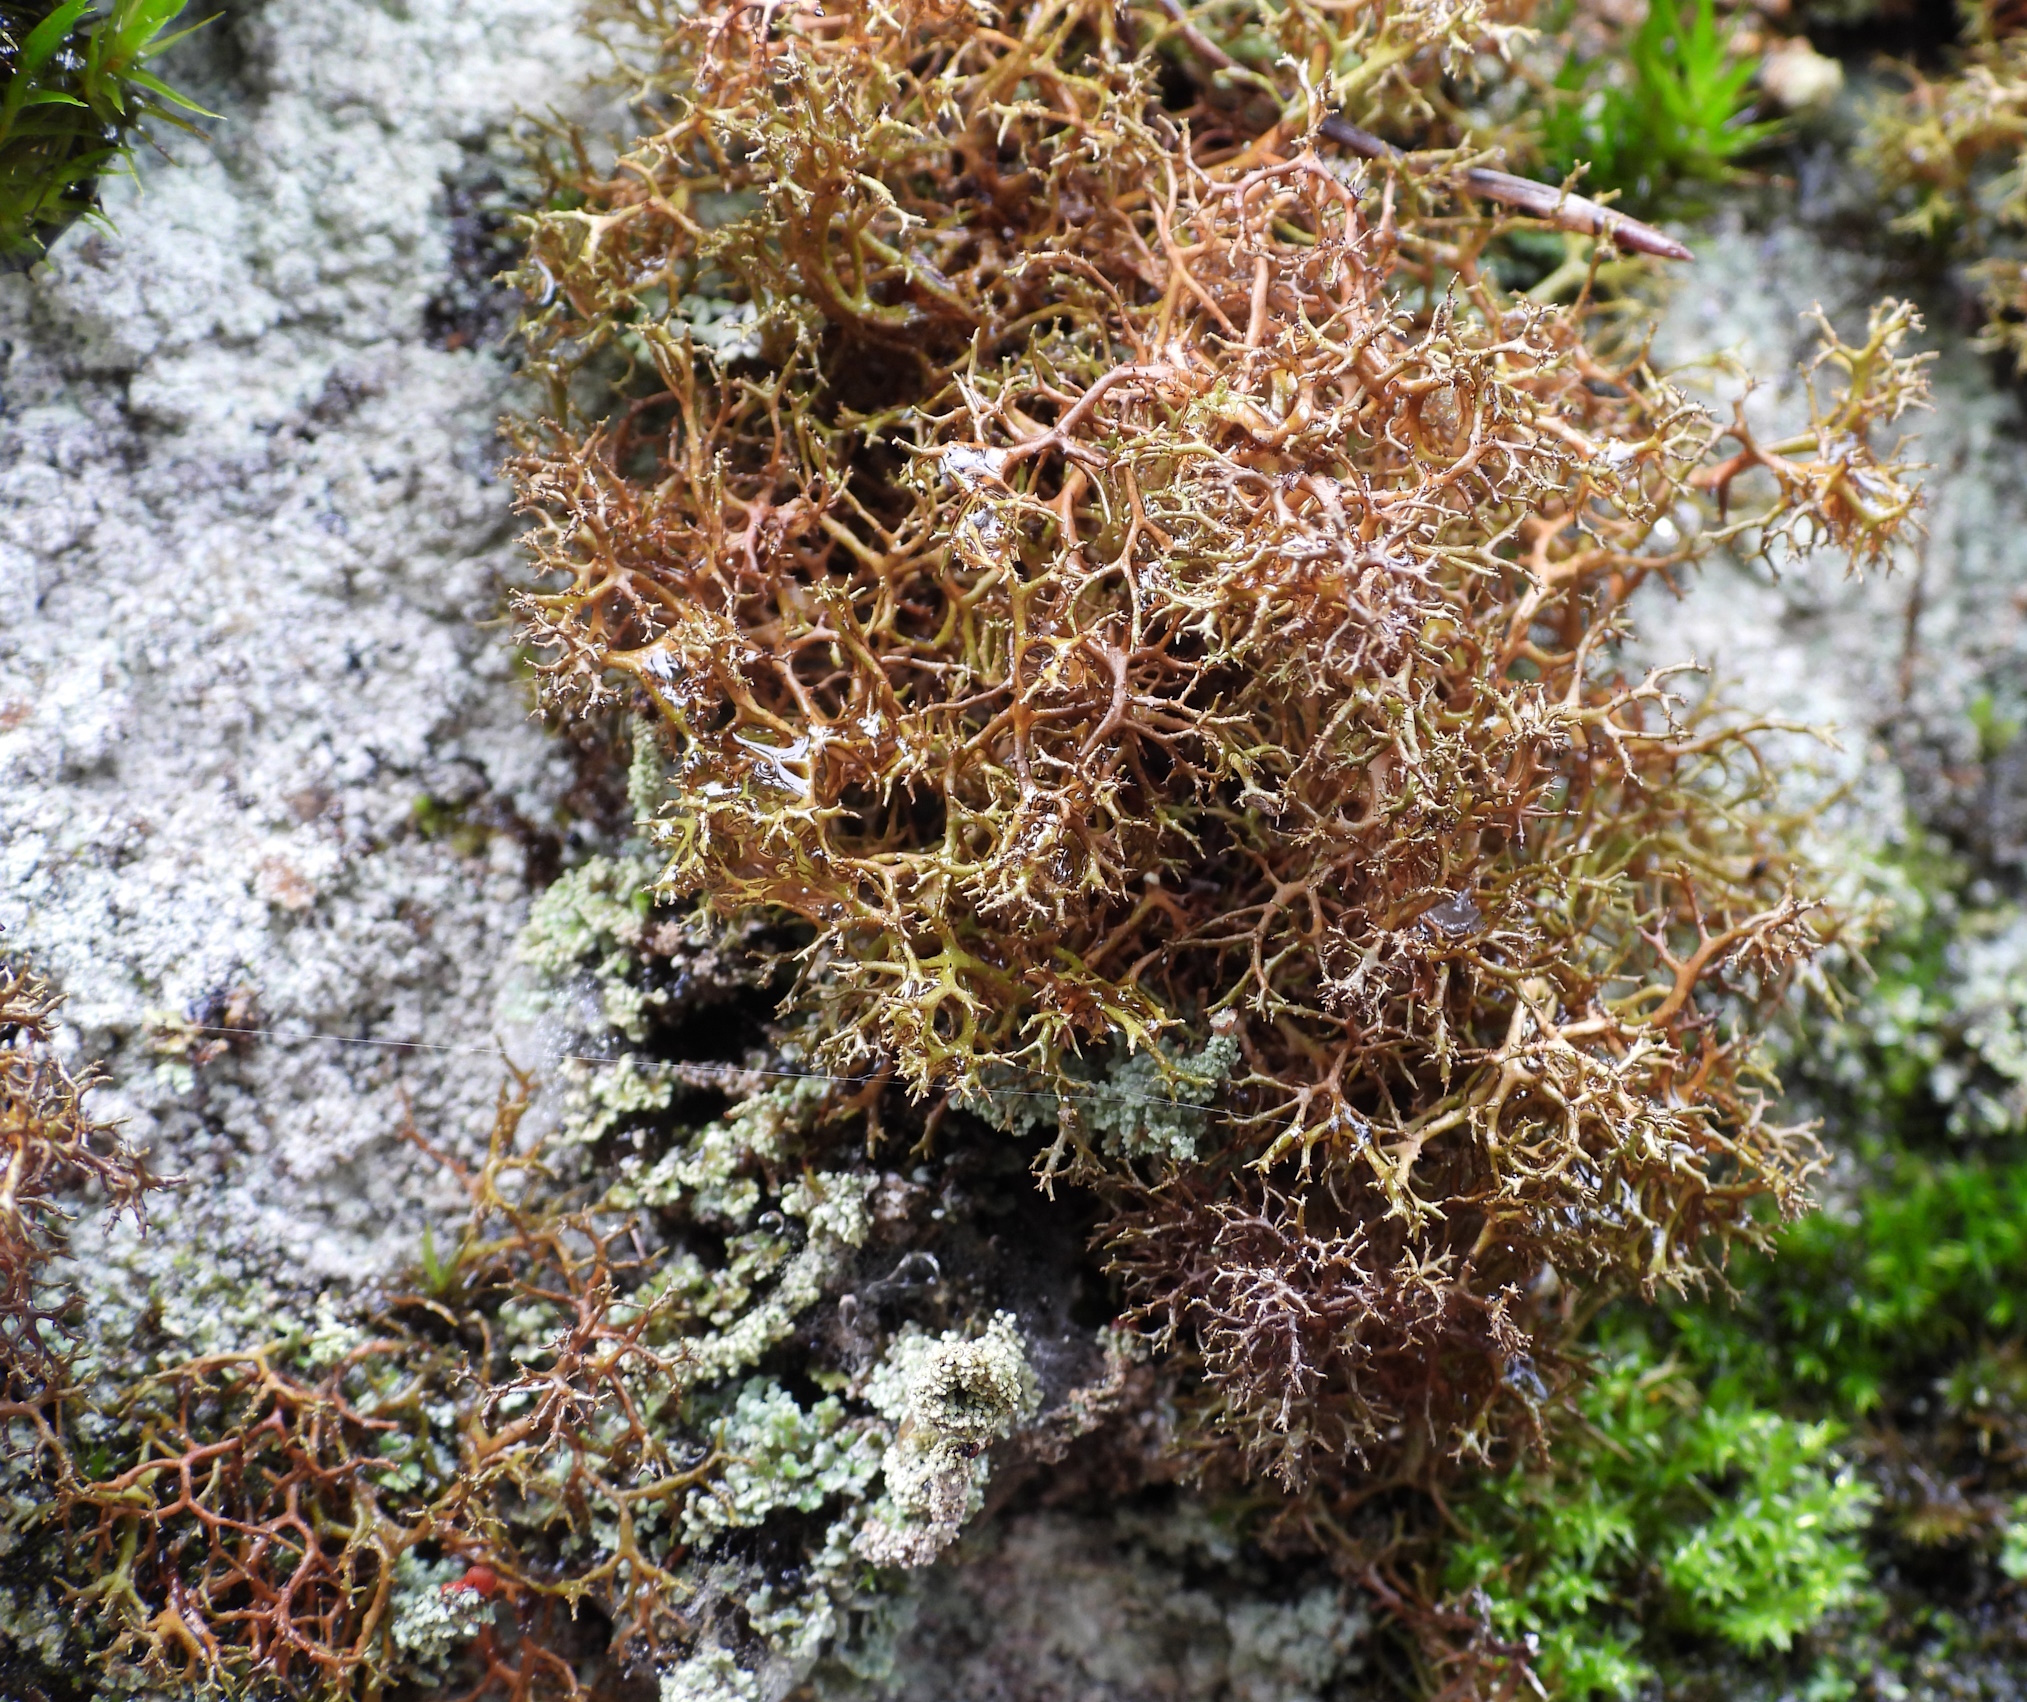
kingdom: Fungi
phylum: Ascomycota
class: Lecanoromycetes
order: Lecanorales
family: Parmeliaceae
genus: Cetraria
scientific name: Cetraria muricata
